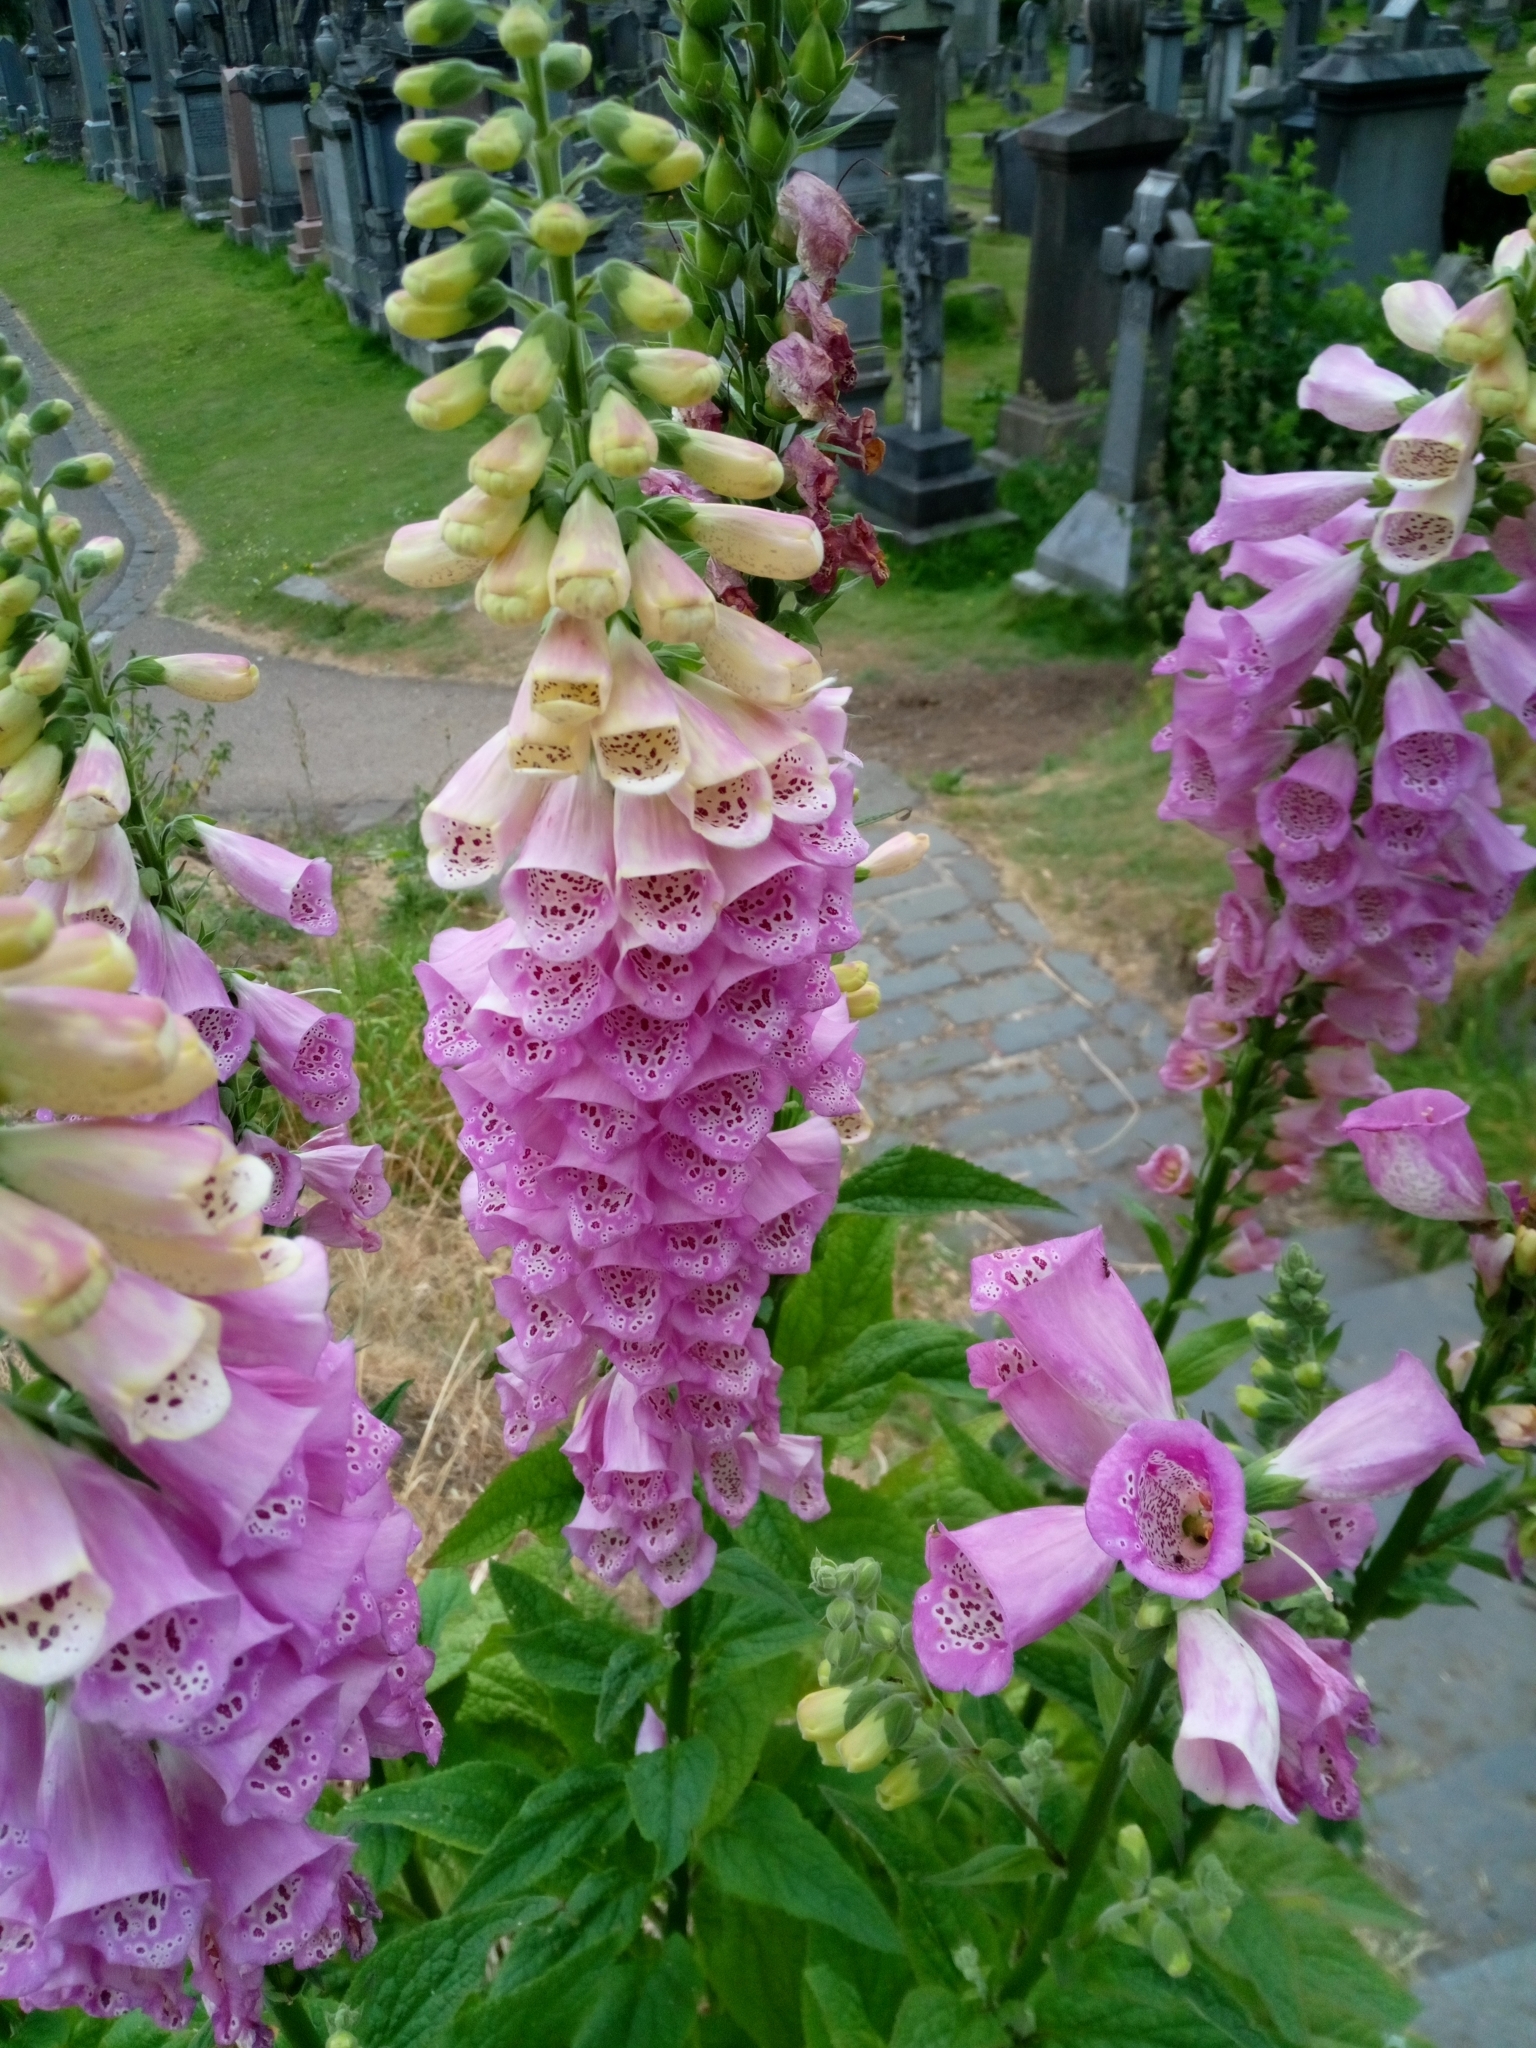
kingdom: Plantae
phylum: Tracheophyta
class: Magnoliopsida
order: Lamiales
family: Plantaginaceae
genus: Digitalis
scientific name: Digitalis purpurea
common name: Foxglove
